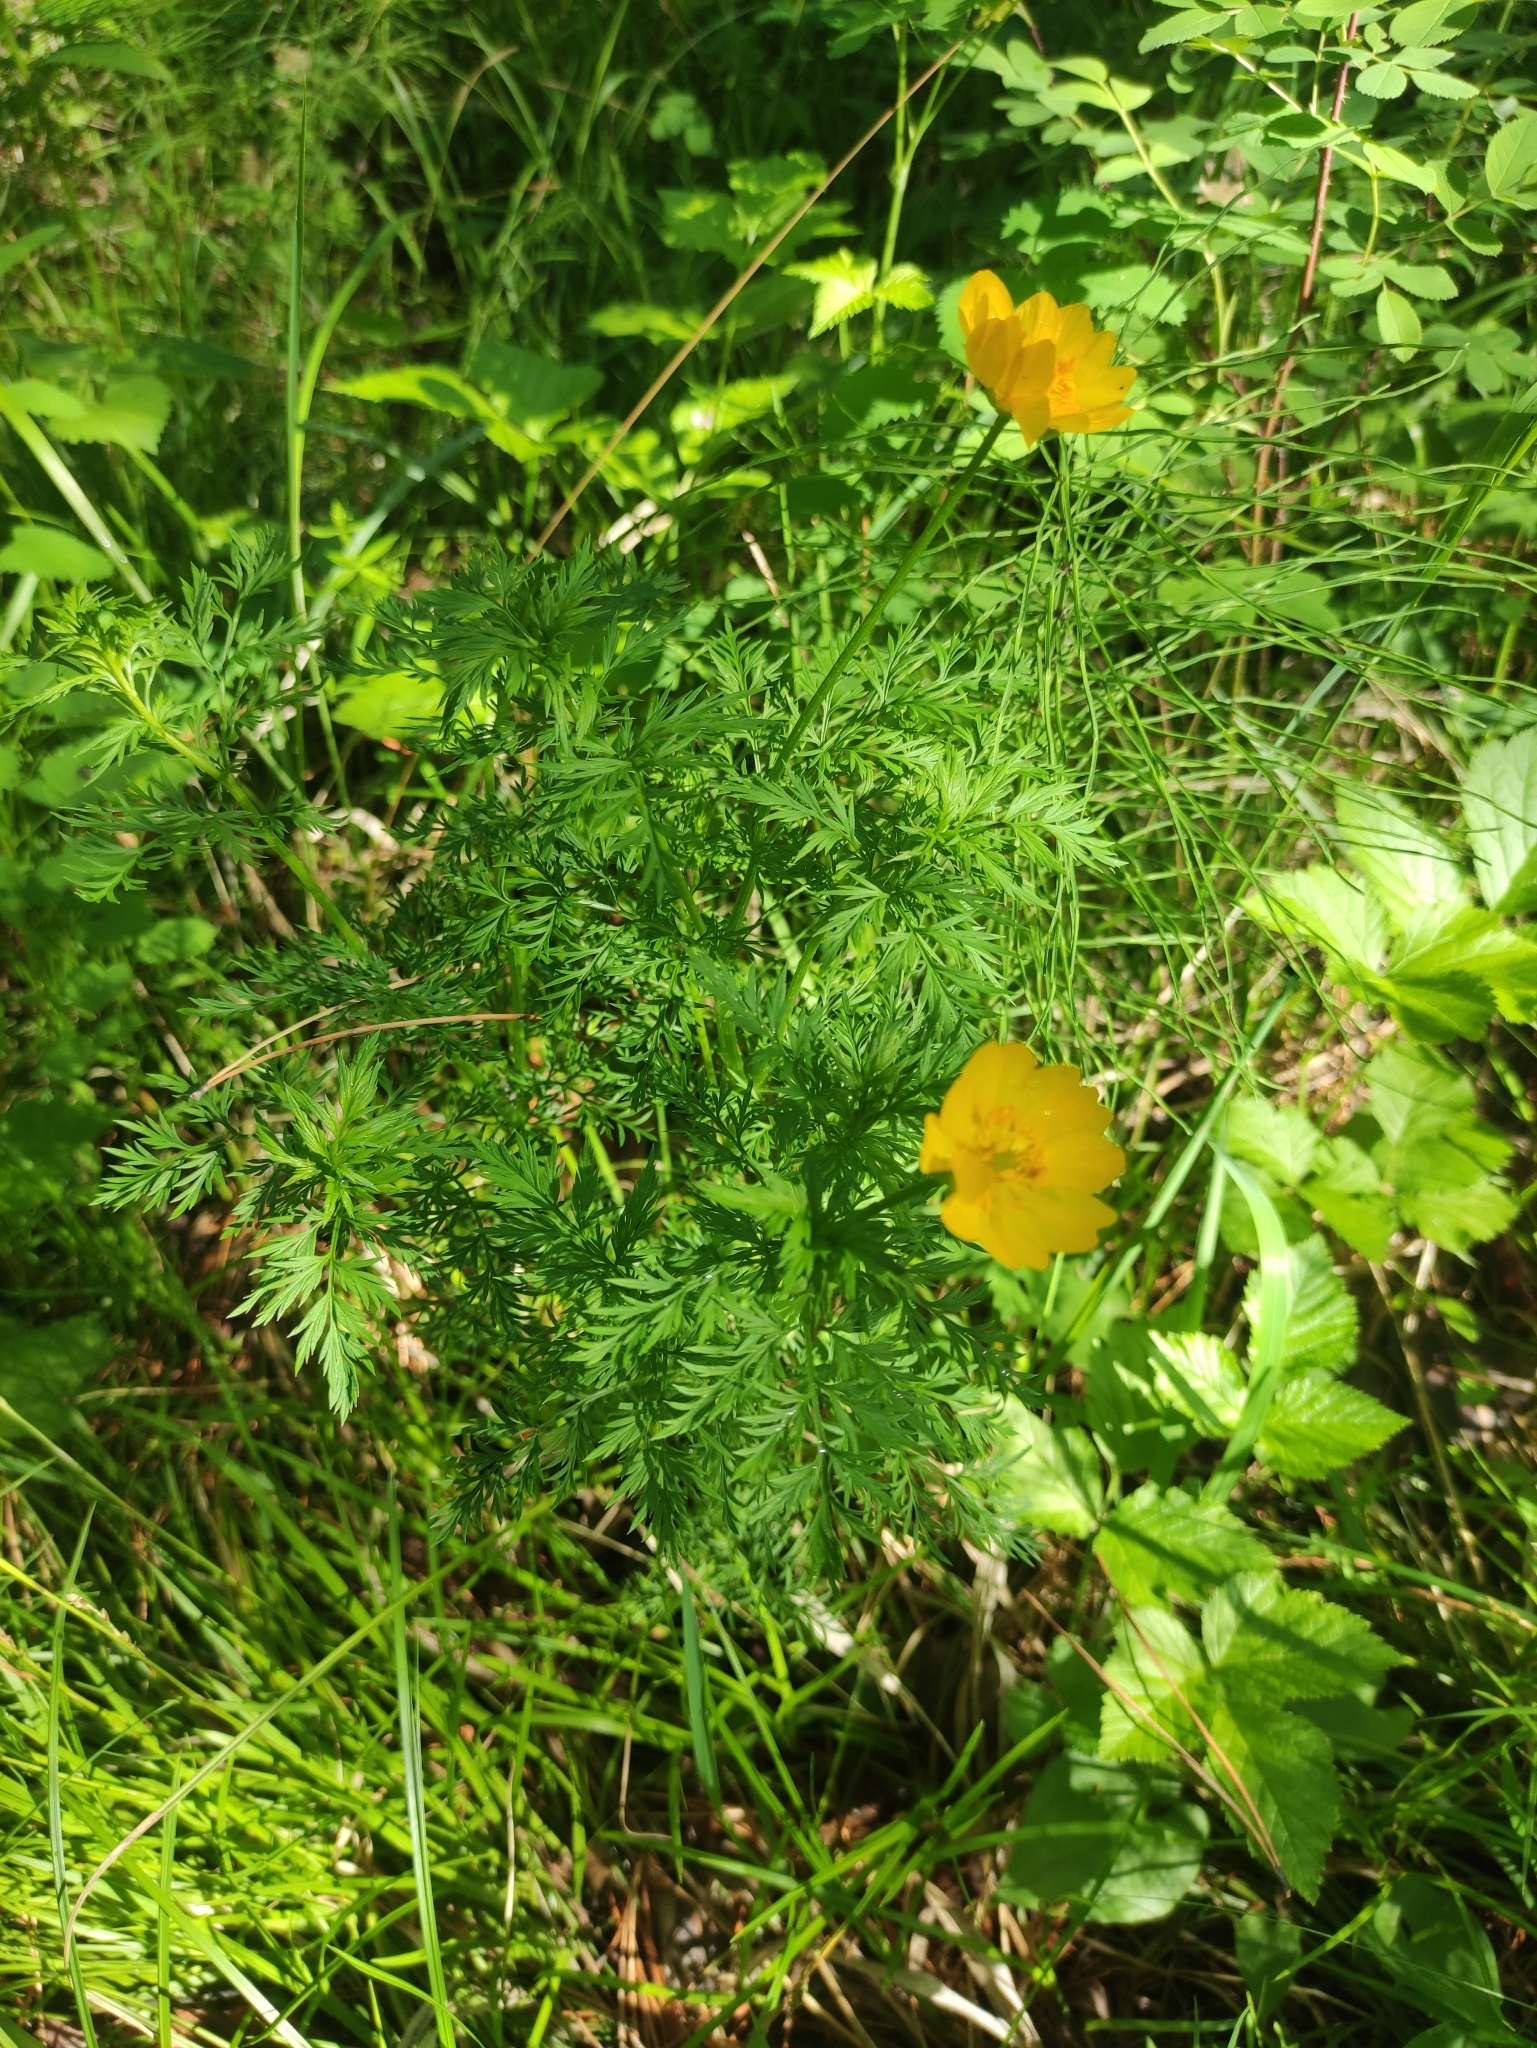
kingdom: Plantae
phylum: Tracheophyta
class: Magnoliopsida
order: Ranunculales
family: Ranunculaceae
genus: Adonis
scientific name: Adonis
